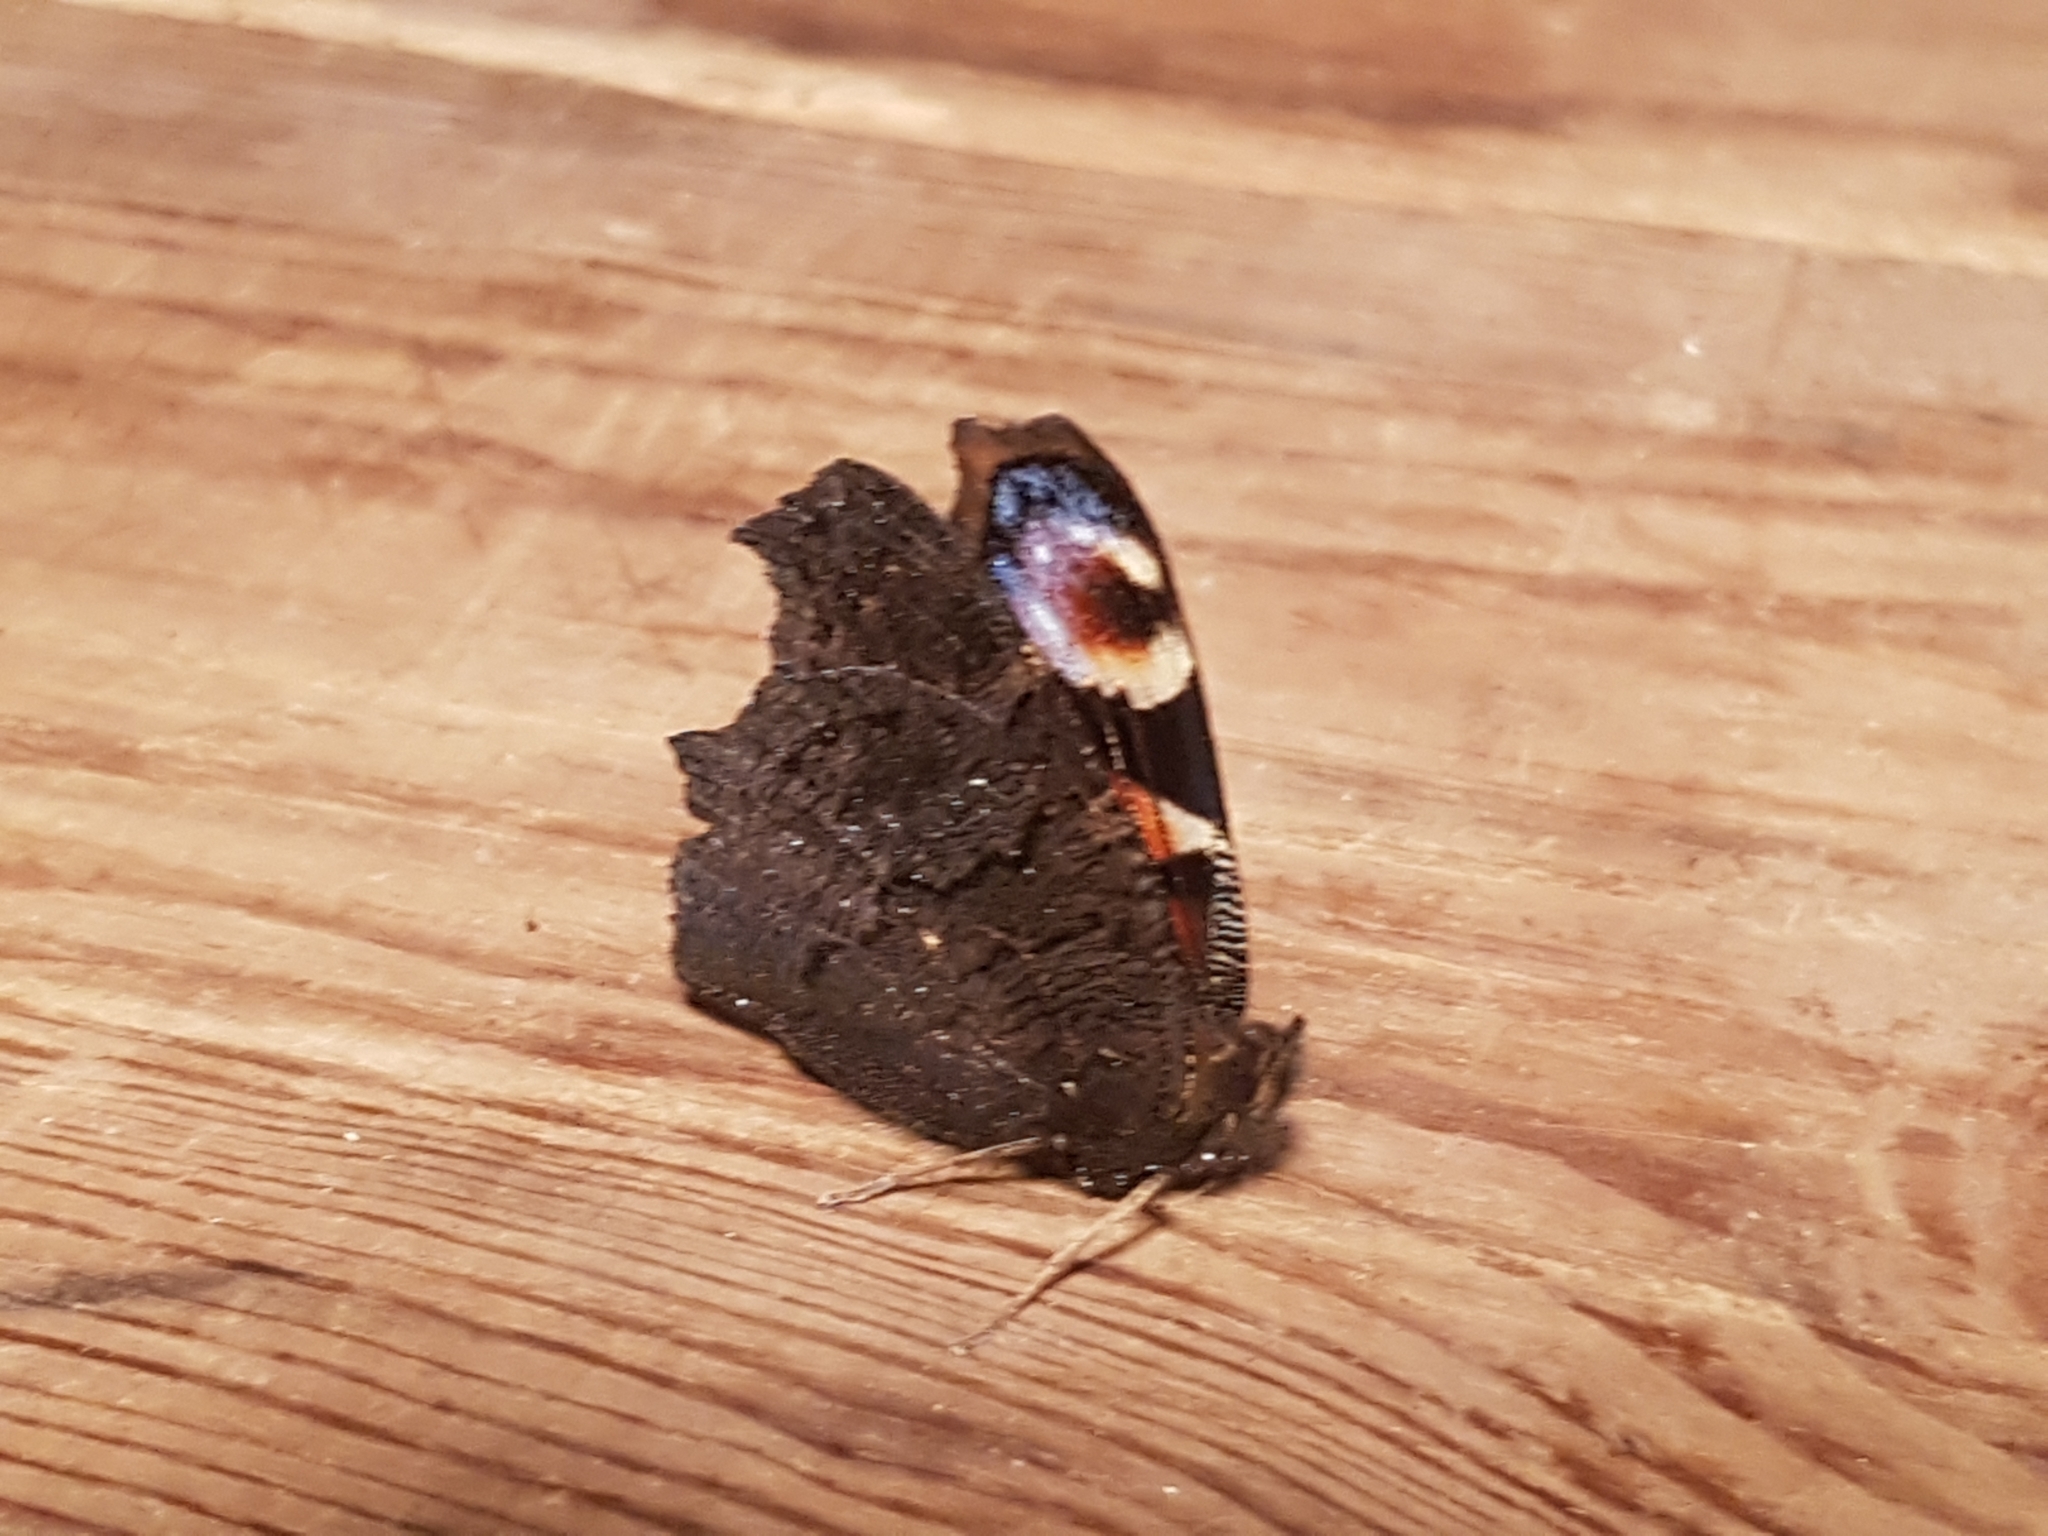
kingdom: Animalia
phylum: Arthropoda
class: Insecta
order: Lepidoptera
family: Nymphalidae
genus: Aglais
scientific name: Aglais io
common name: Peacock
